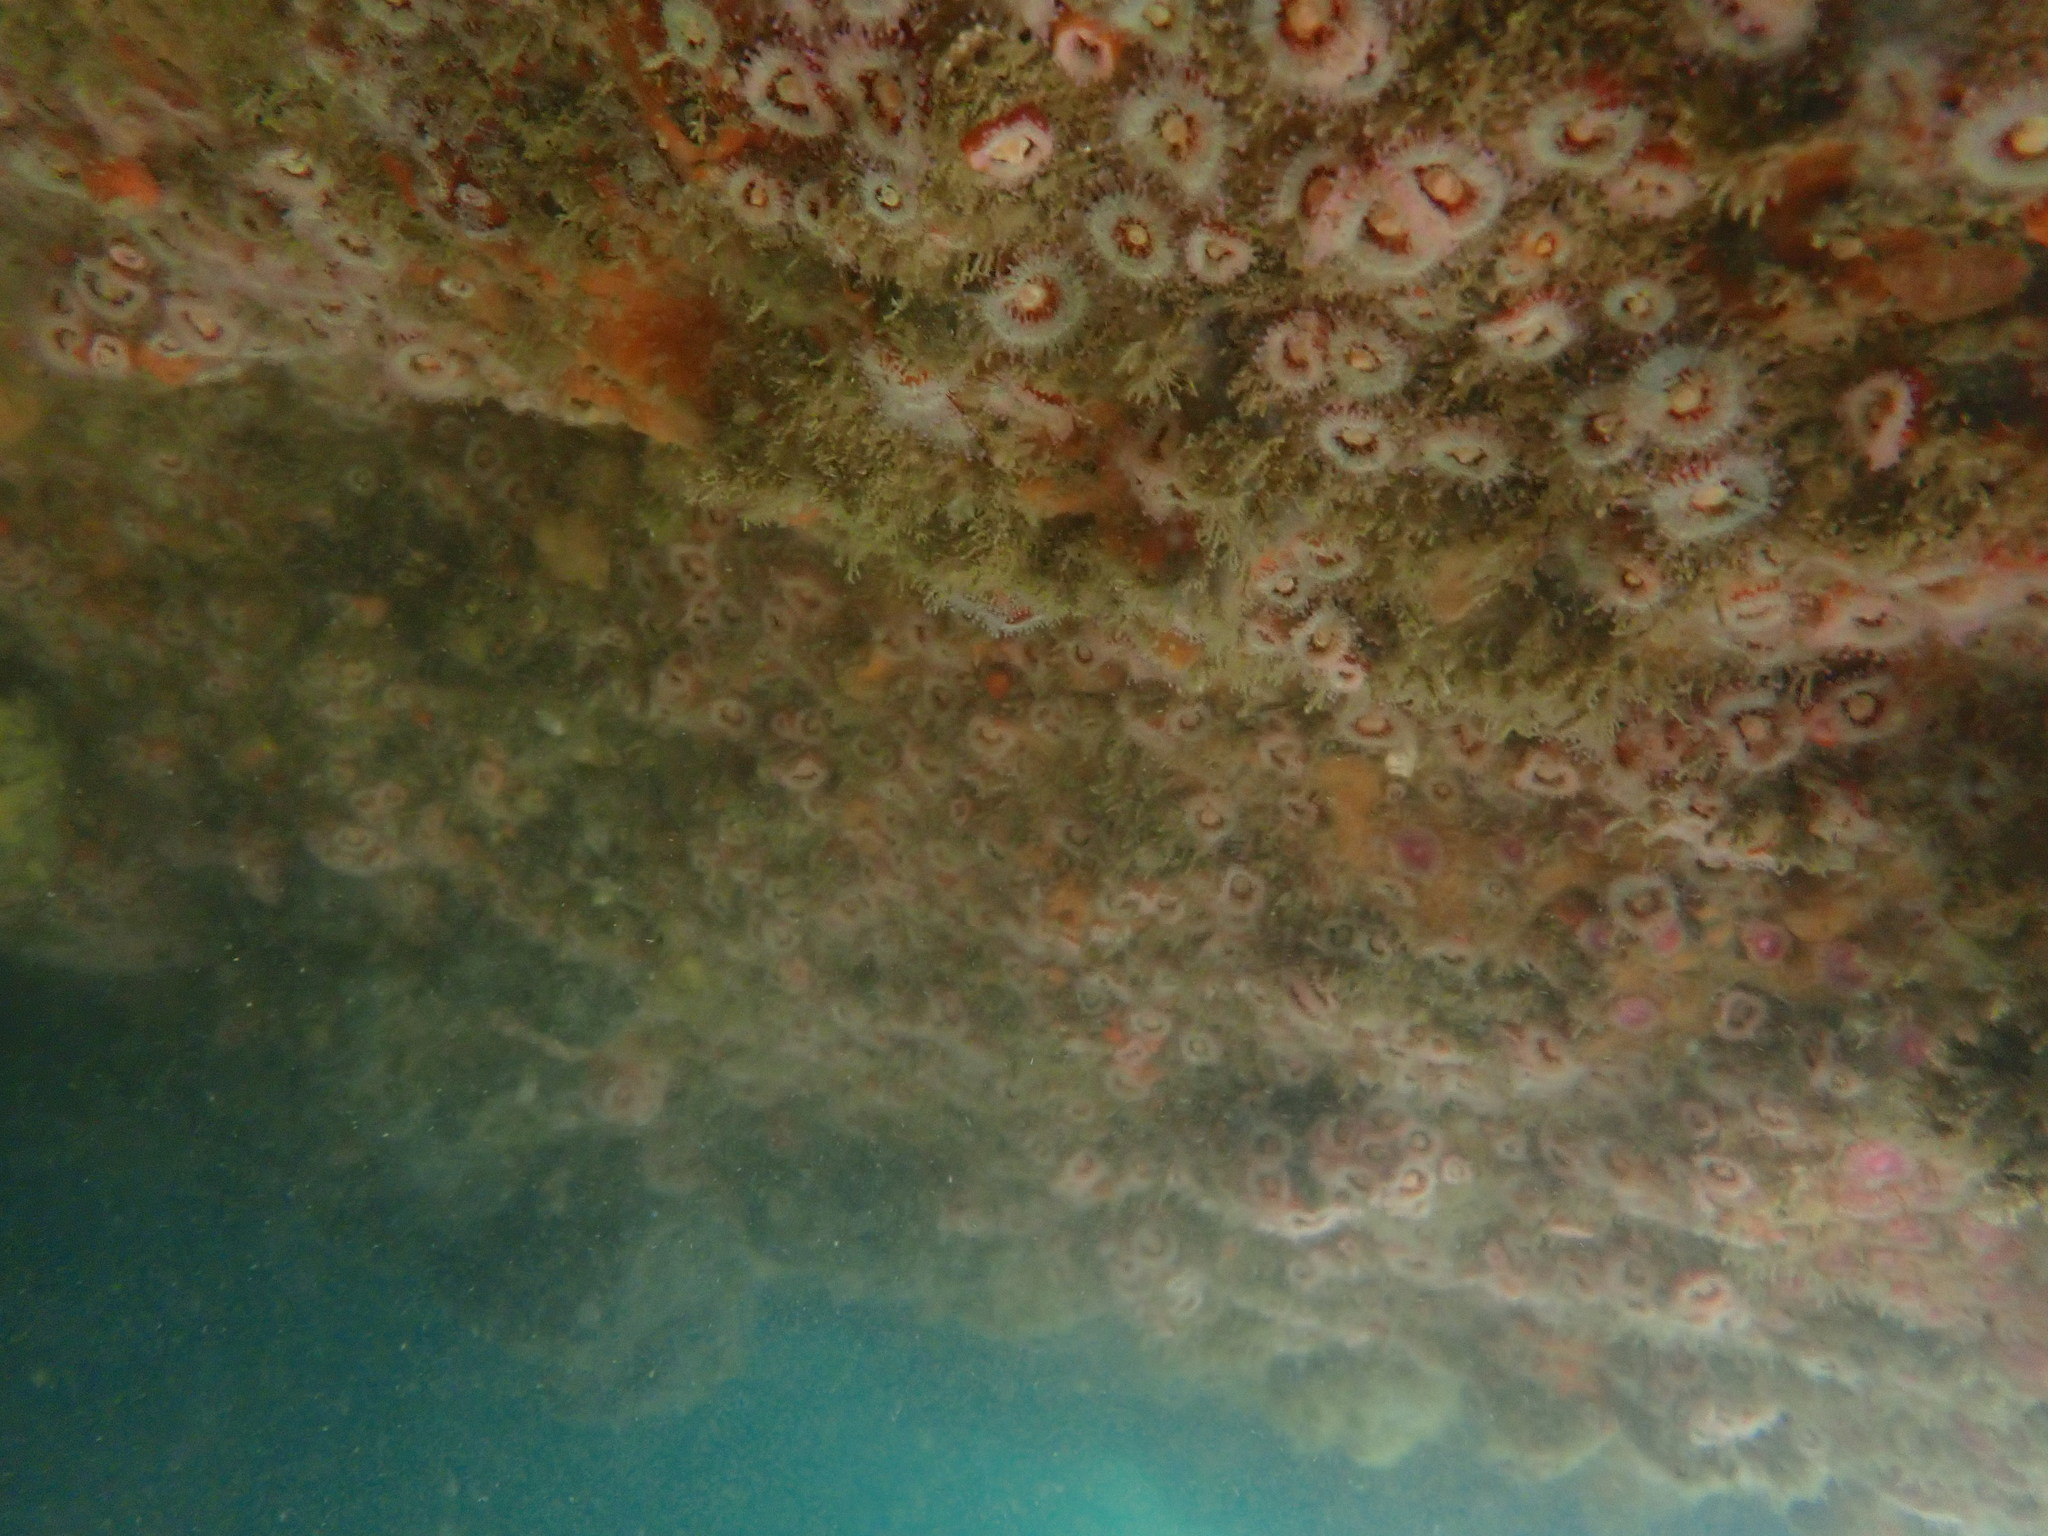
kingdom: Animalia
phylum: Cnidaria
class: Anthozoa
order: Corallimorpharia
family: Corallimorphidae
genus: Corynactis
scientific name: Corynactis australis
